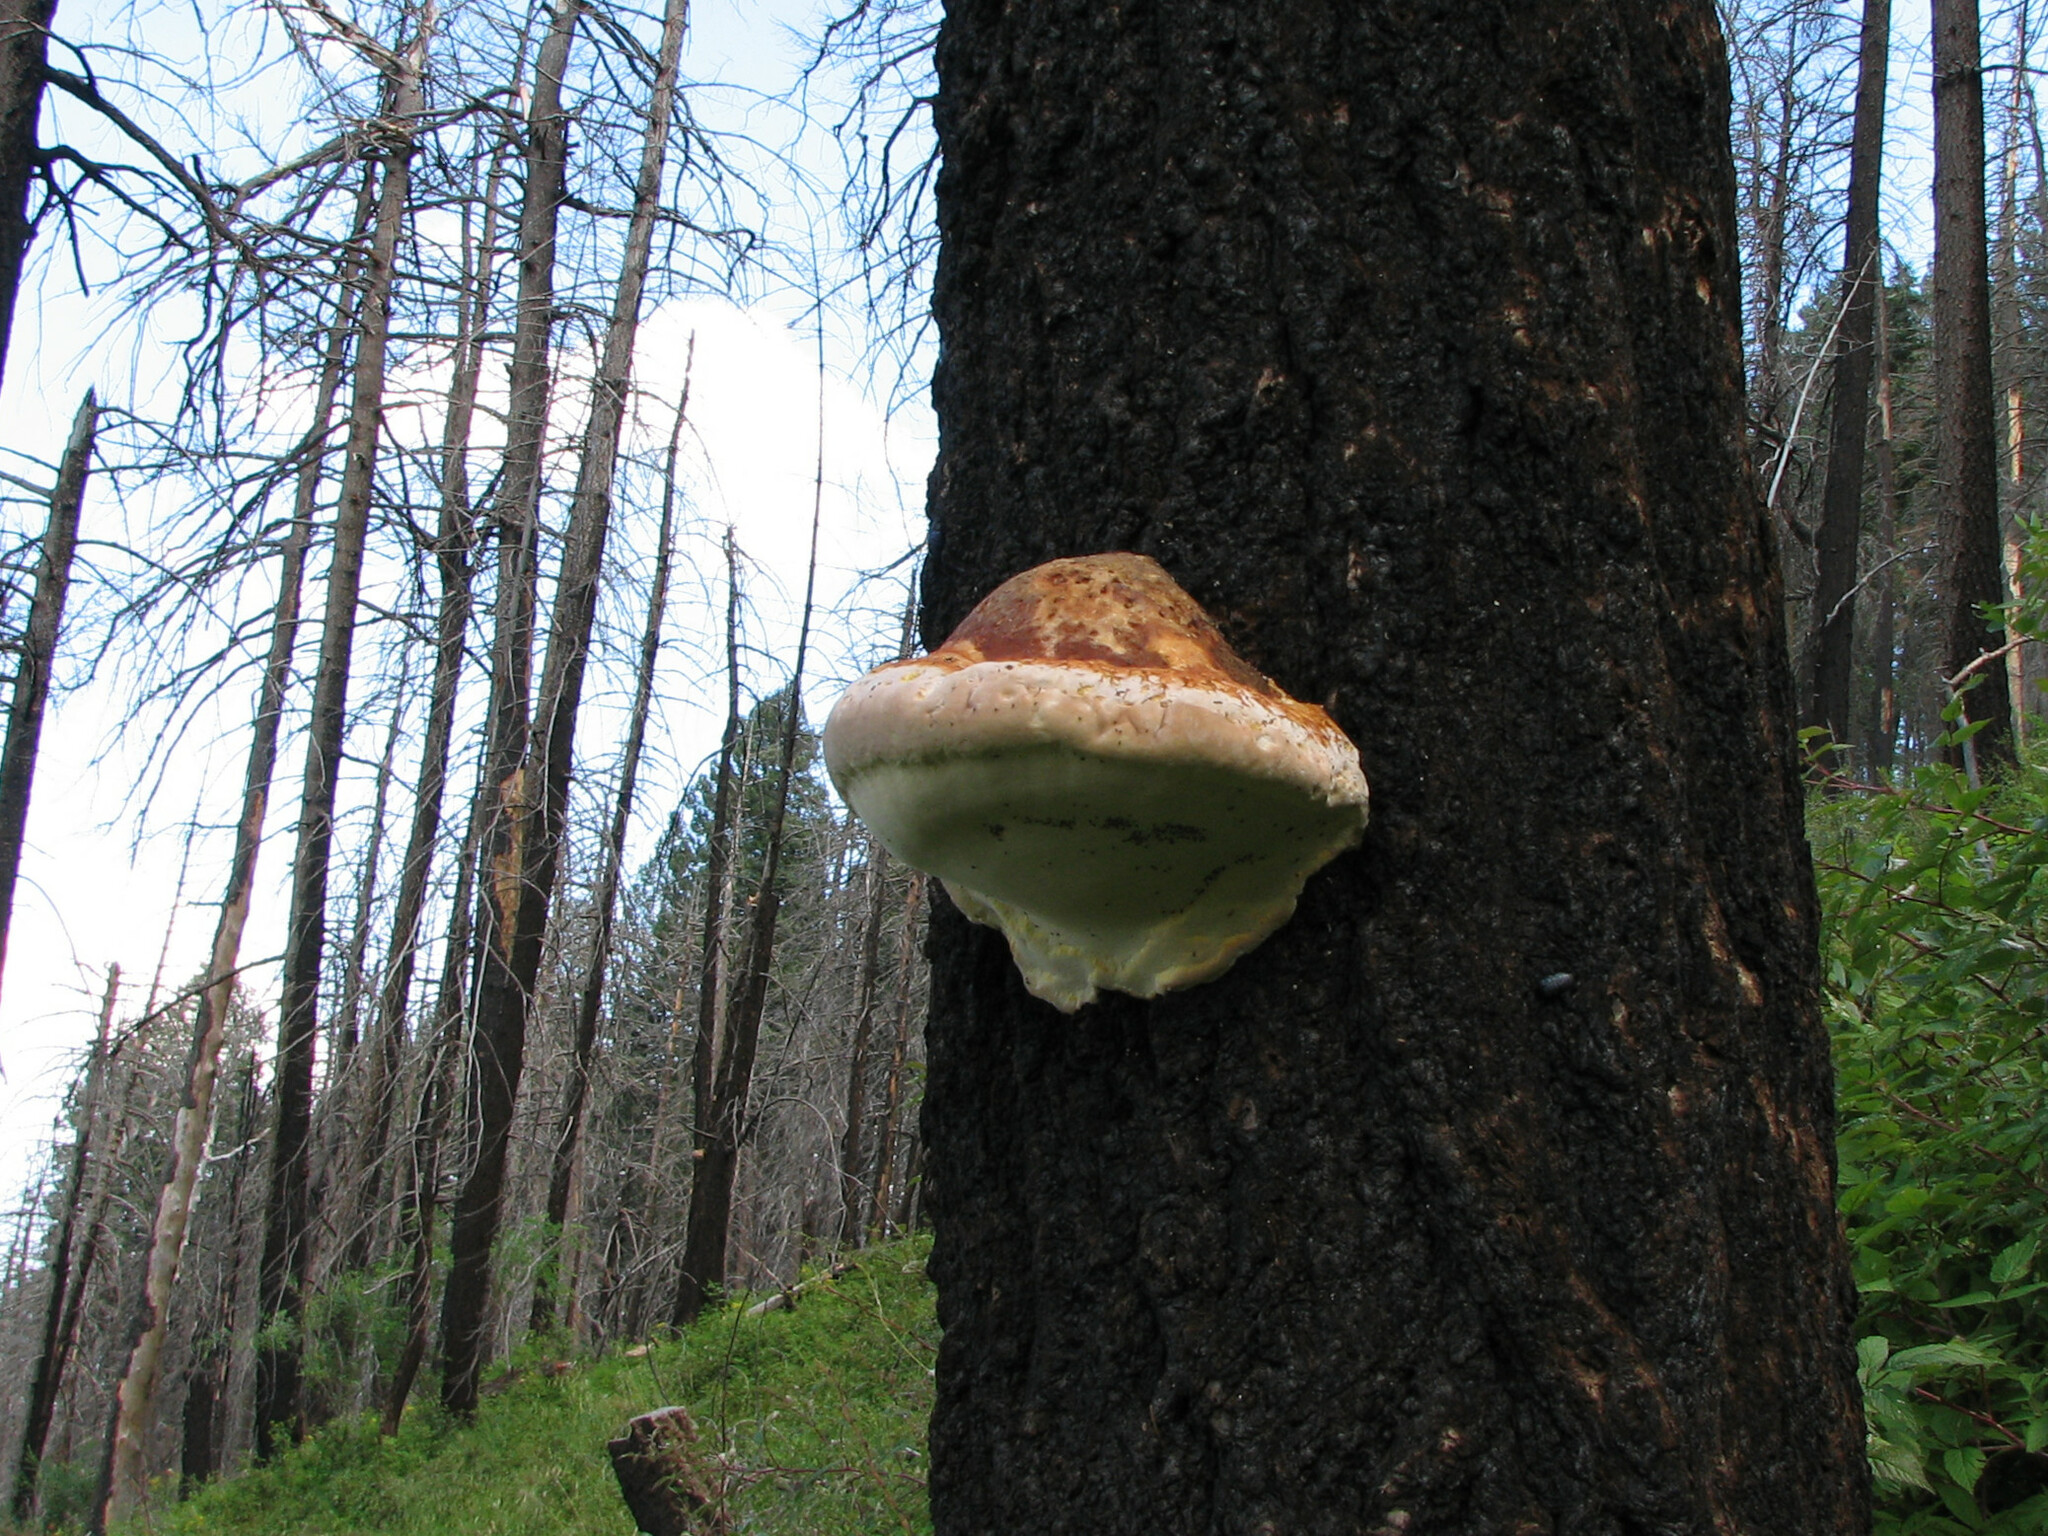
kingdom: Fungi
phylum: Basidiomycota
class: Agaricomycetes
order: Polyporales
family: Fomitopsidaceae
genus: Fomitopsis
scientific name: Fomitopsis schrenkii
